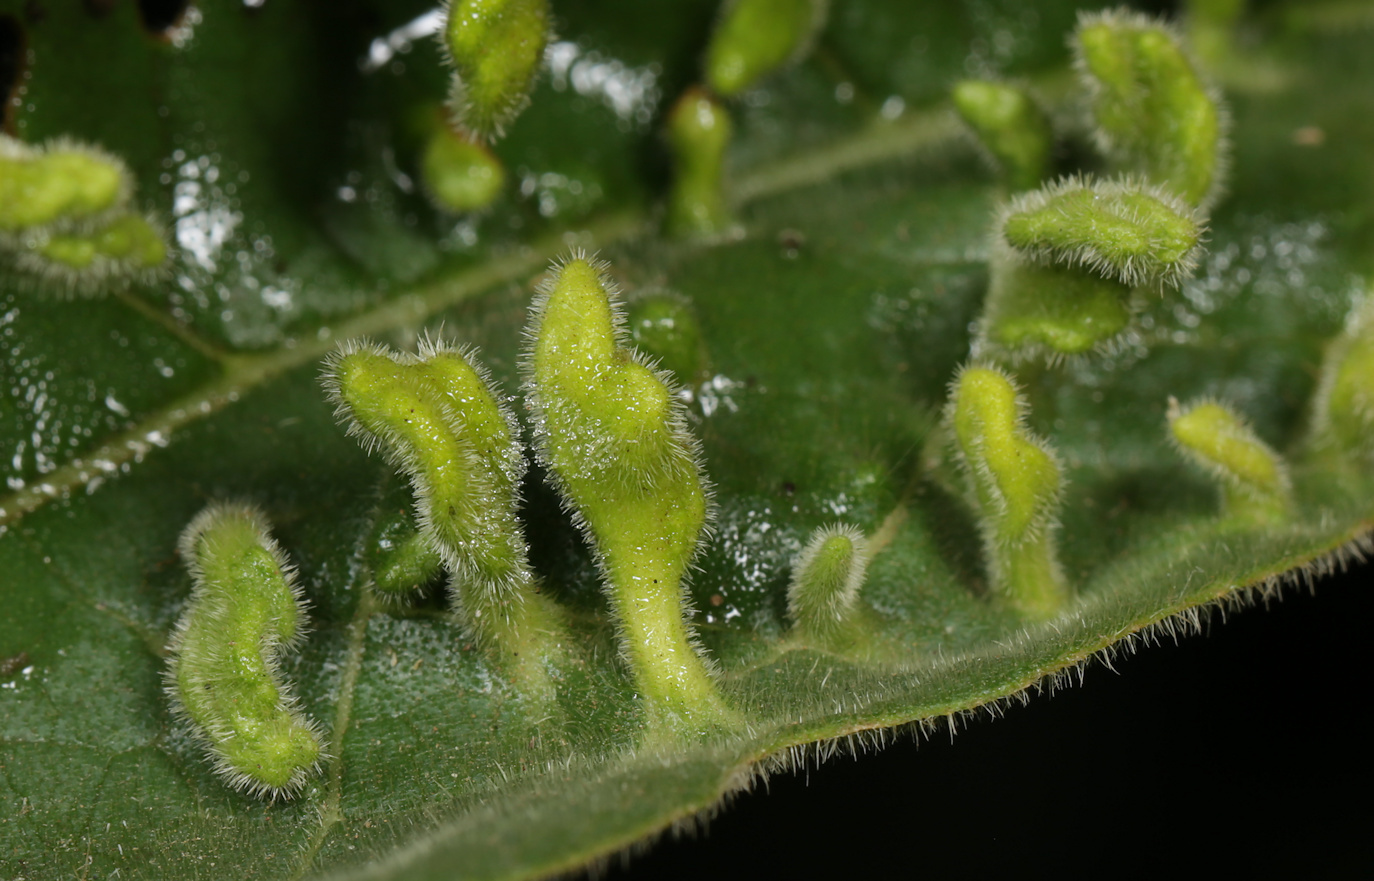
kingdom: Animalia
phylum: Arthropoda
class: Arachnida
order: Trombidiformes
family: Eriophyidae
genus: Acalitus
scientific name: Acalitus
